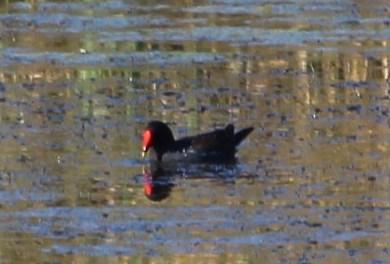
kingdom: Animalia
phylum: Chordata
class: Aves
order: Gruiformes
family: Rallidae
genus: Gallinula
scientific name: Gallinula chloropus
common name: Common moorhen
